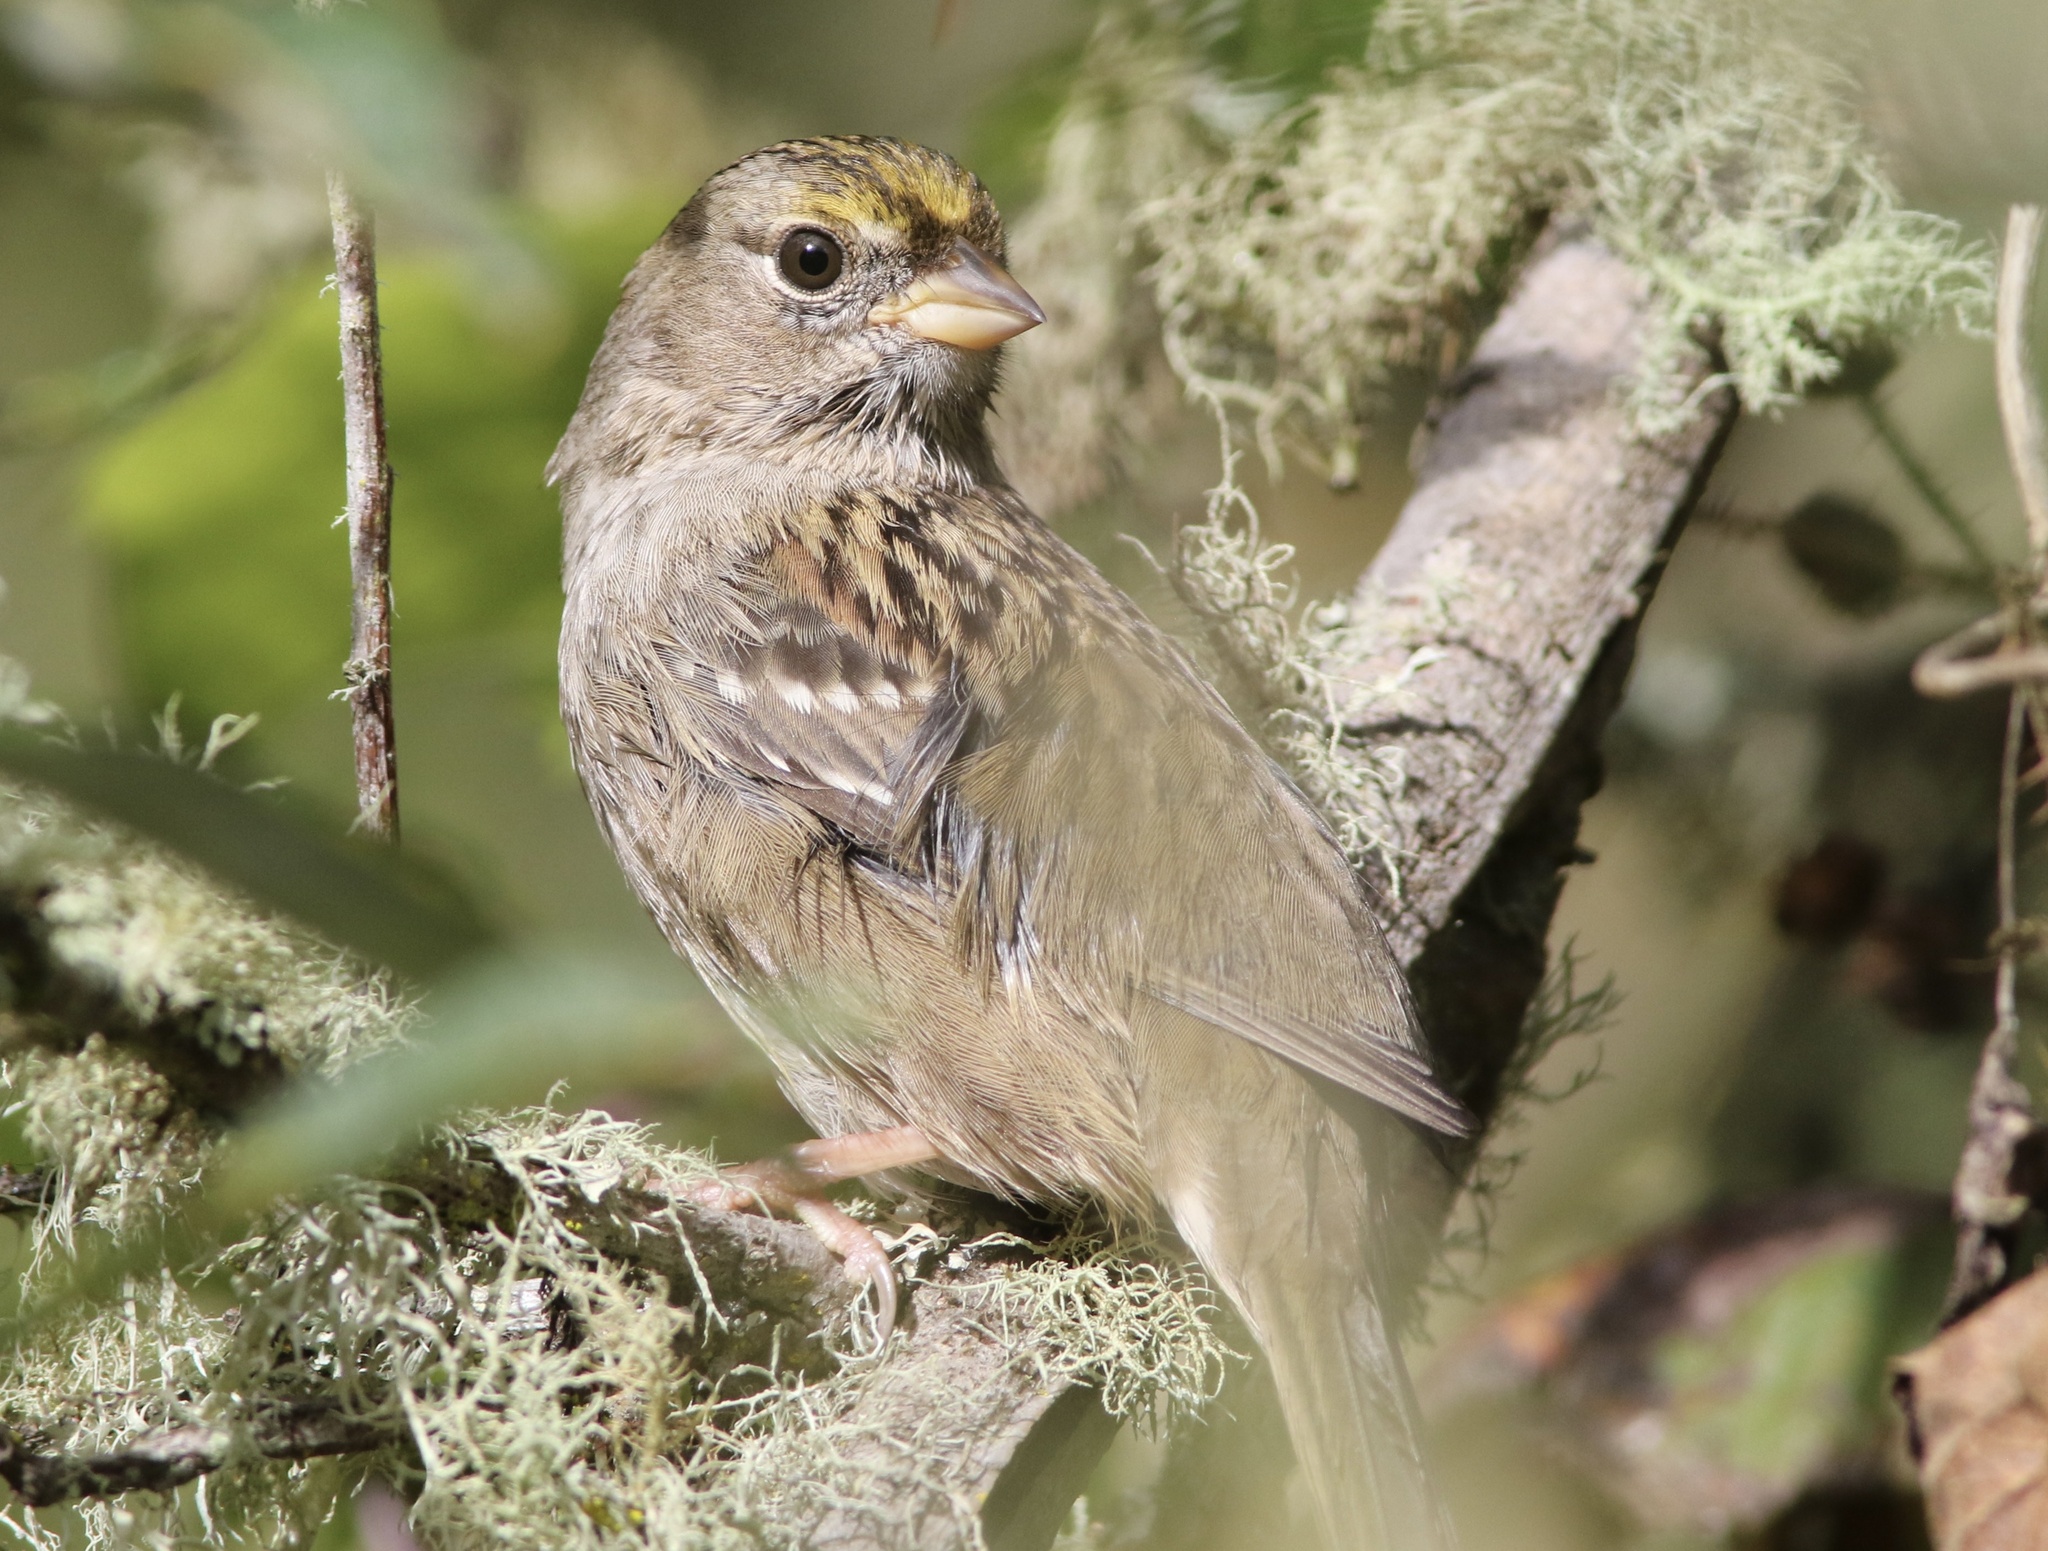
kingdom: Animalia
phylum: Chordata
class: Aves
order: Passeriformes
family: Passerellidae
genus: Zonotrichia
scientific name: Zonotrichia atricapilla
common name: Golden-crowned sparrow
